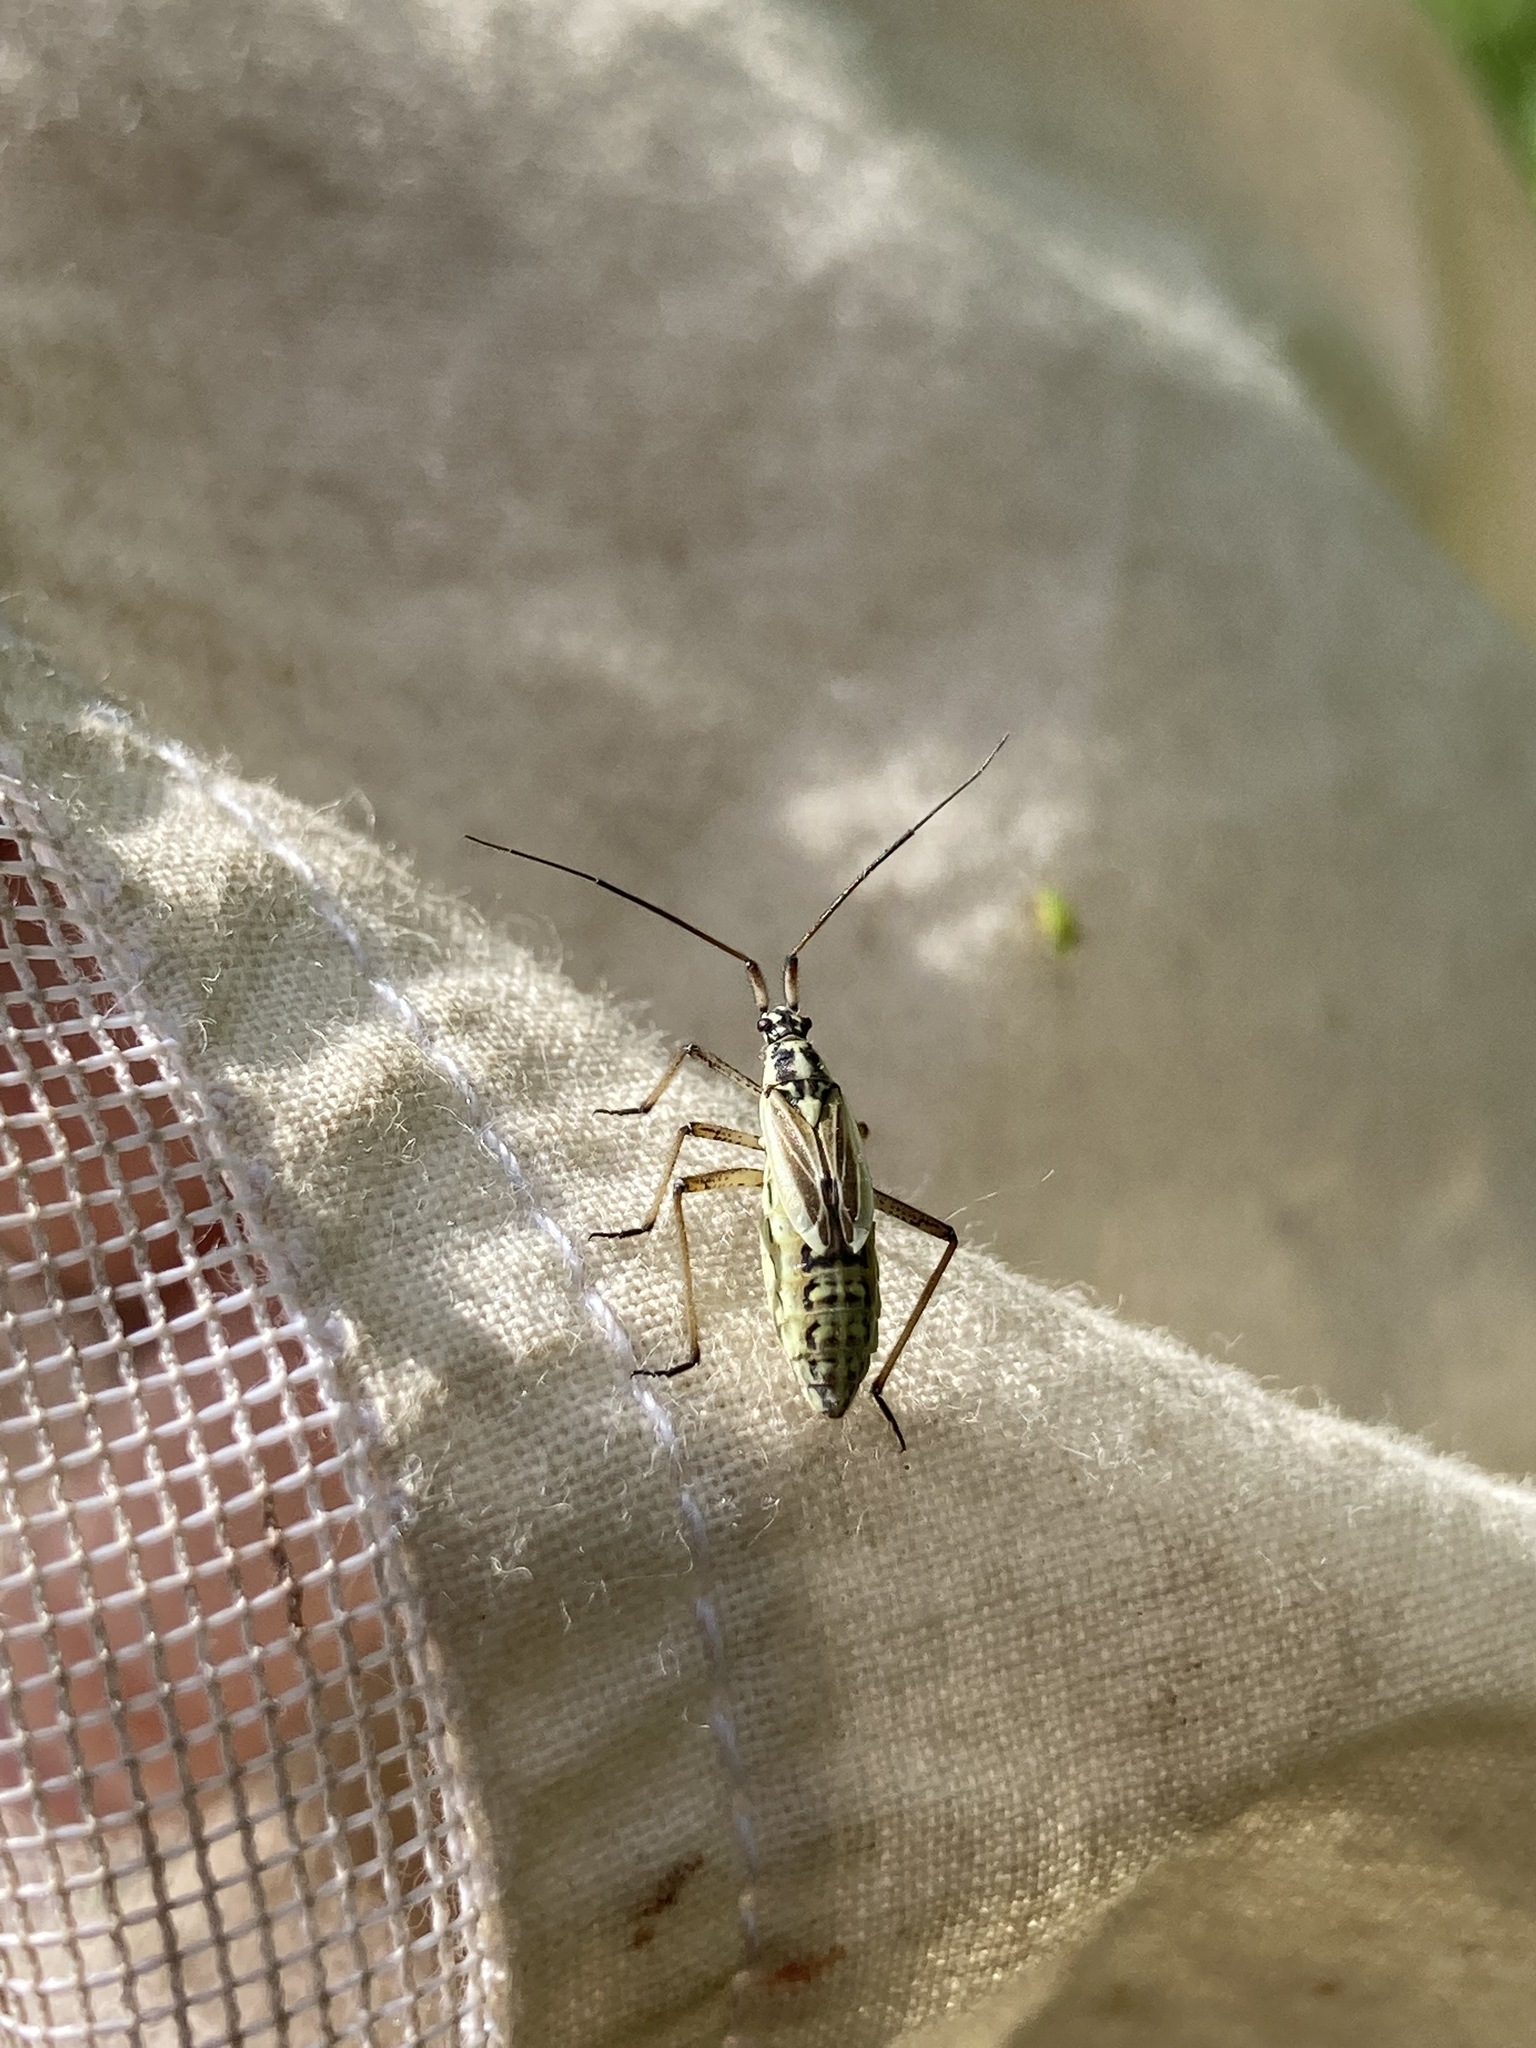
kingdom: Animalia
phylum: Arthropoda
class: Insecta
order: Hemiptera
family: Miridae
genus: Leptopterna
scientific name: Leptopterna dolabrata
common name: Meadow plant bug
